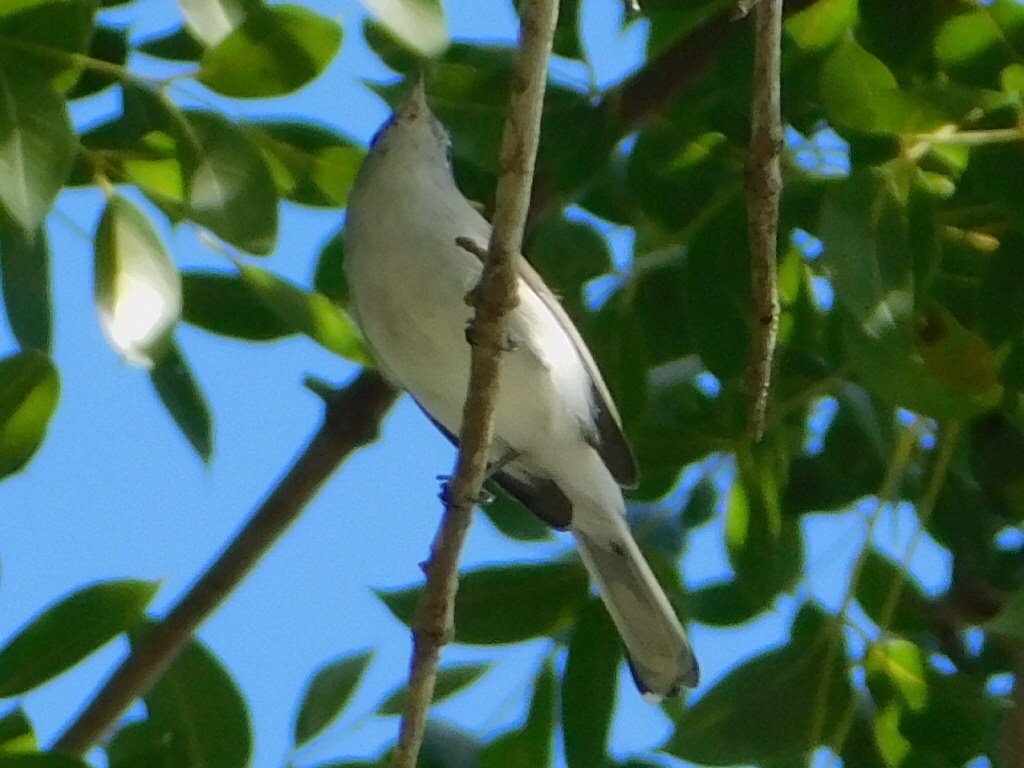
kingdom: Animalia
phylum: Chordata
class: Aves
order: Passeriformes
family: Polioptilidae
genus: Polioptila
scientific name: Polioptila caerulea
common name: Blue-gray gnatcatcher
